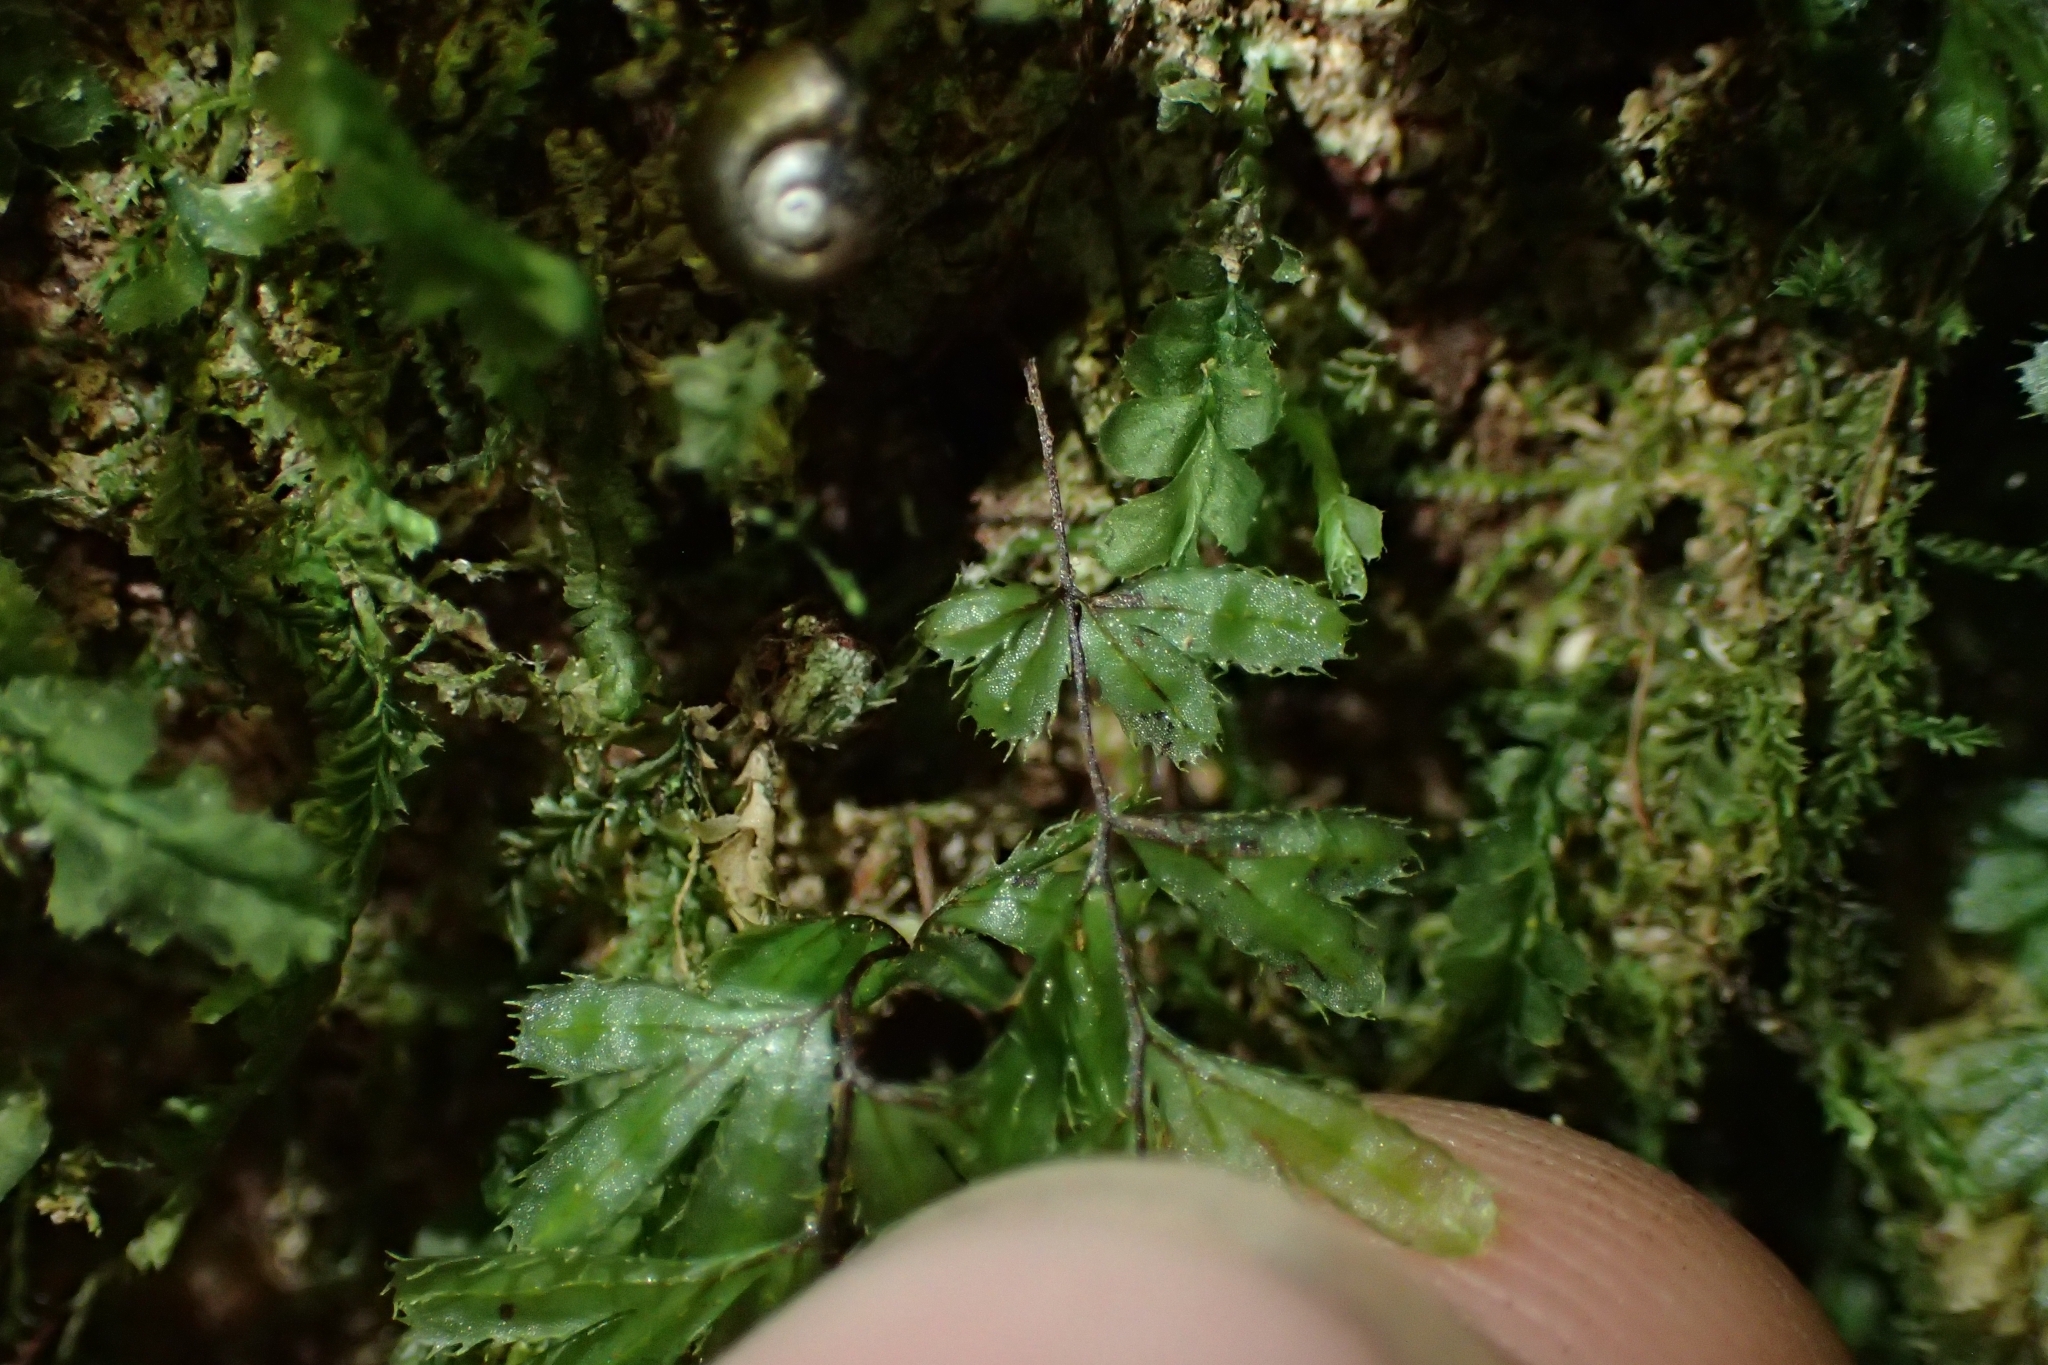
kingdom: Plantae
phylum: Tracheophyta
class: Polypodiopsida
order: Hymenophyllales
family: Hymenophyllaceae
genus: Hymenophyllum
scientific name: Hymenophyllum revolutum
